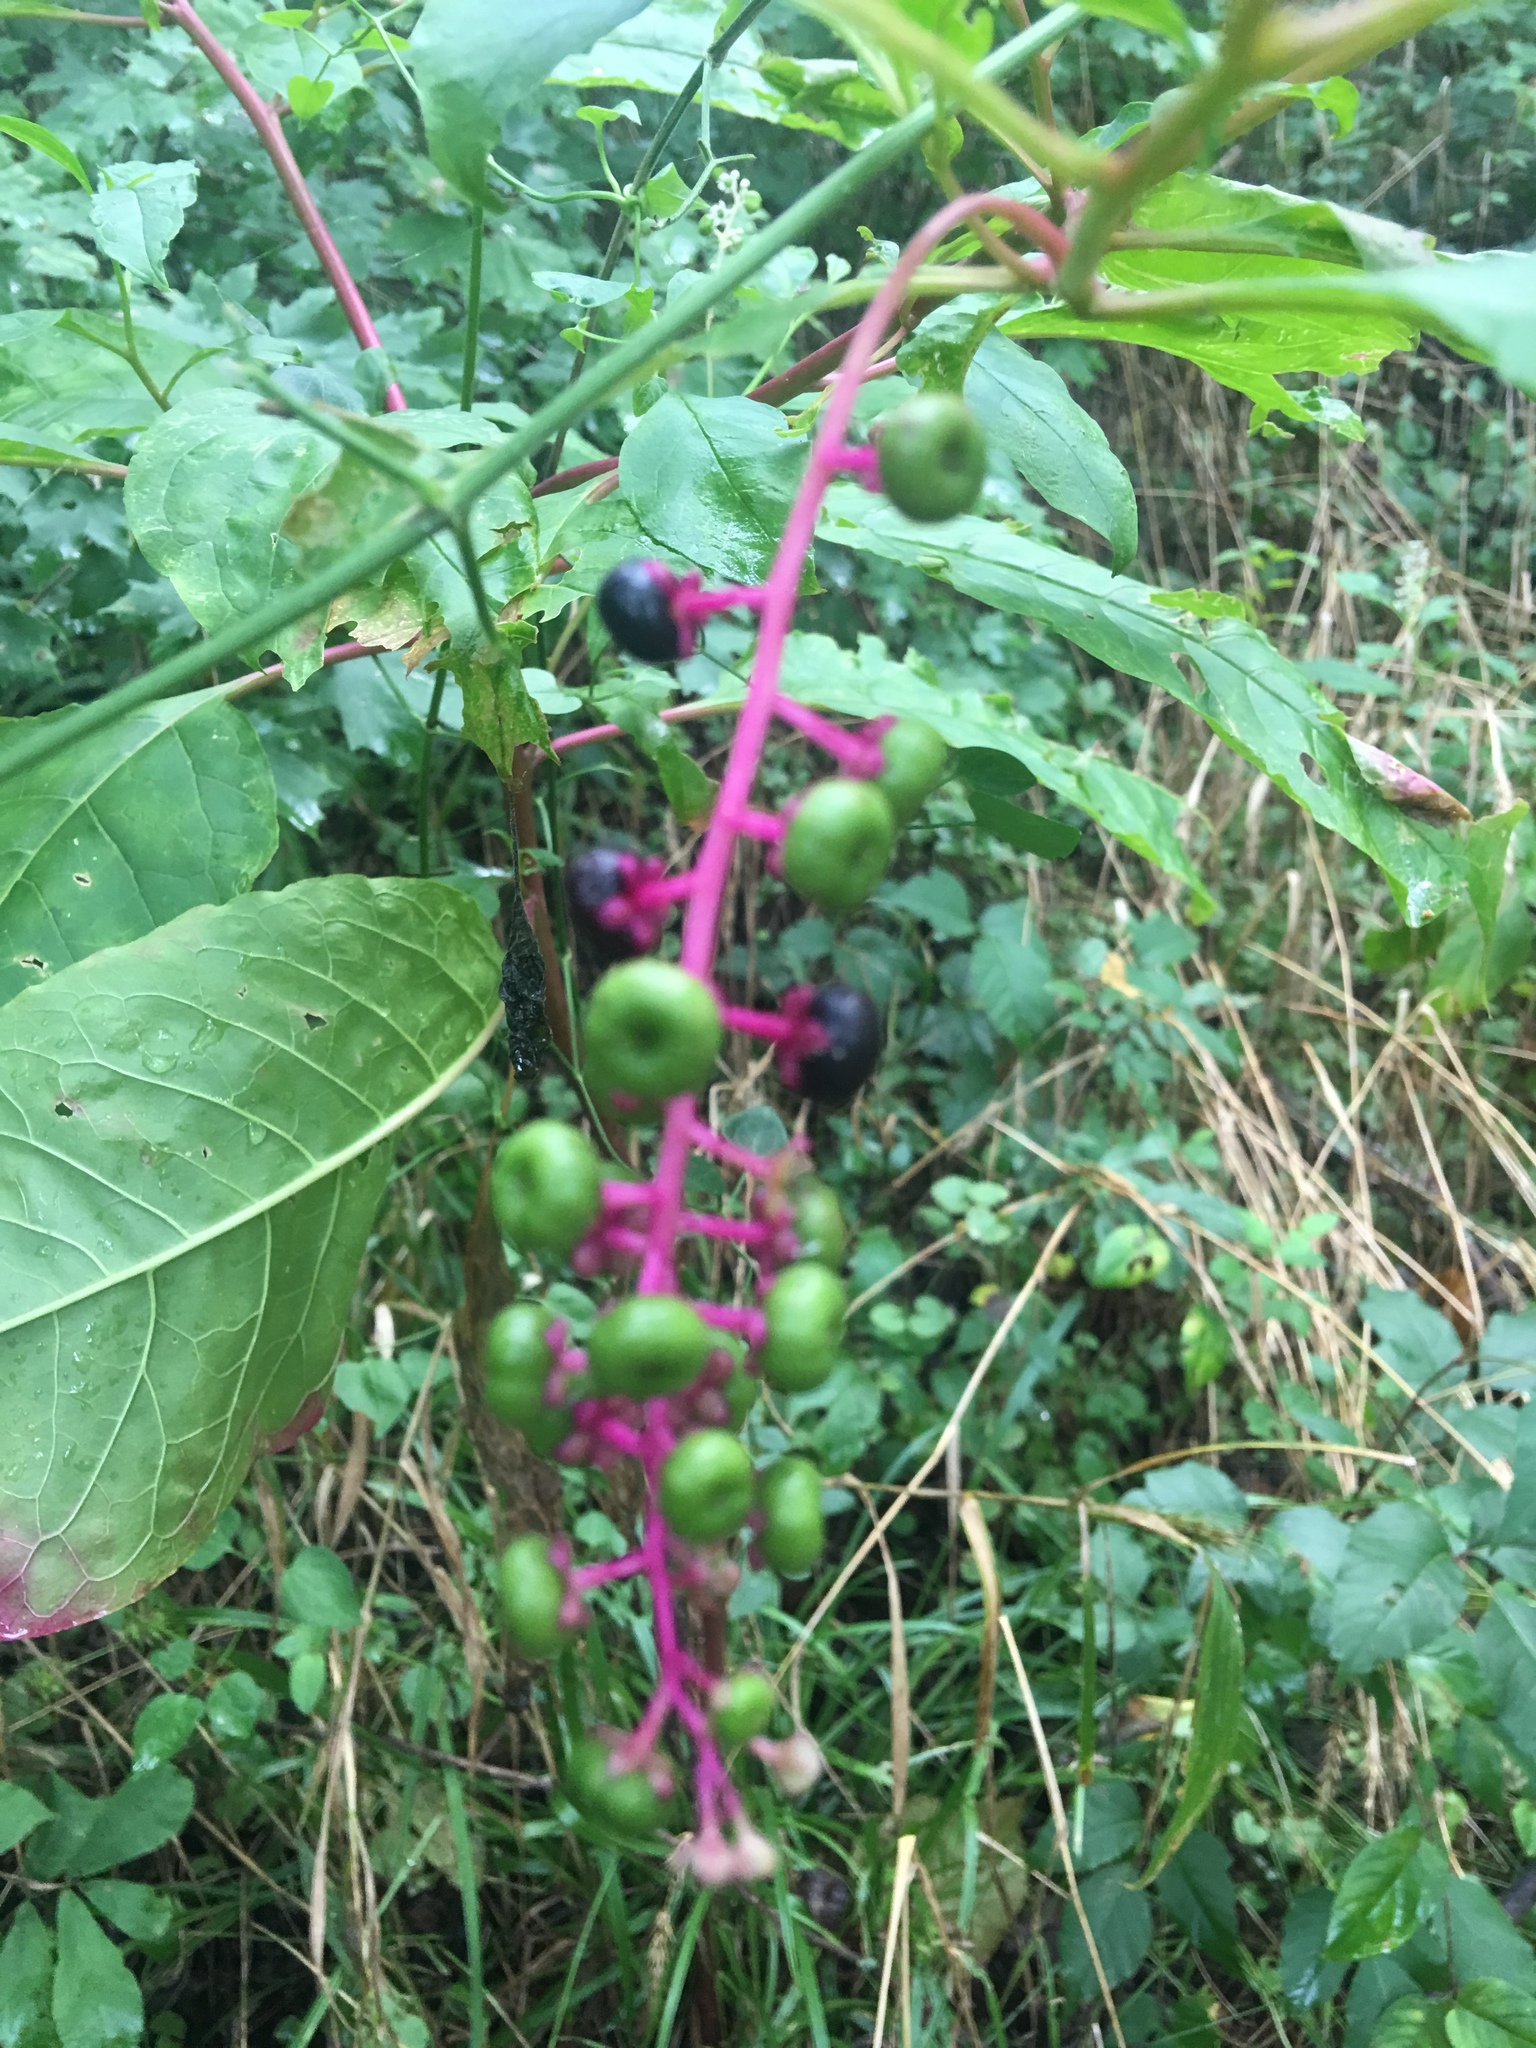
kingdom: Plantae
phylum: Tracheophyta
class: Magnoliopsida
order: Caryophyllales
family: Phytolaccaceae
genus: Phytolacca
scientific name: Phytolacca americana
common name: American pokeweed
